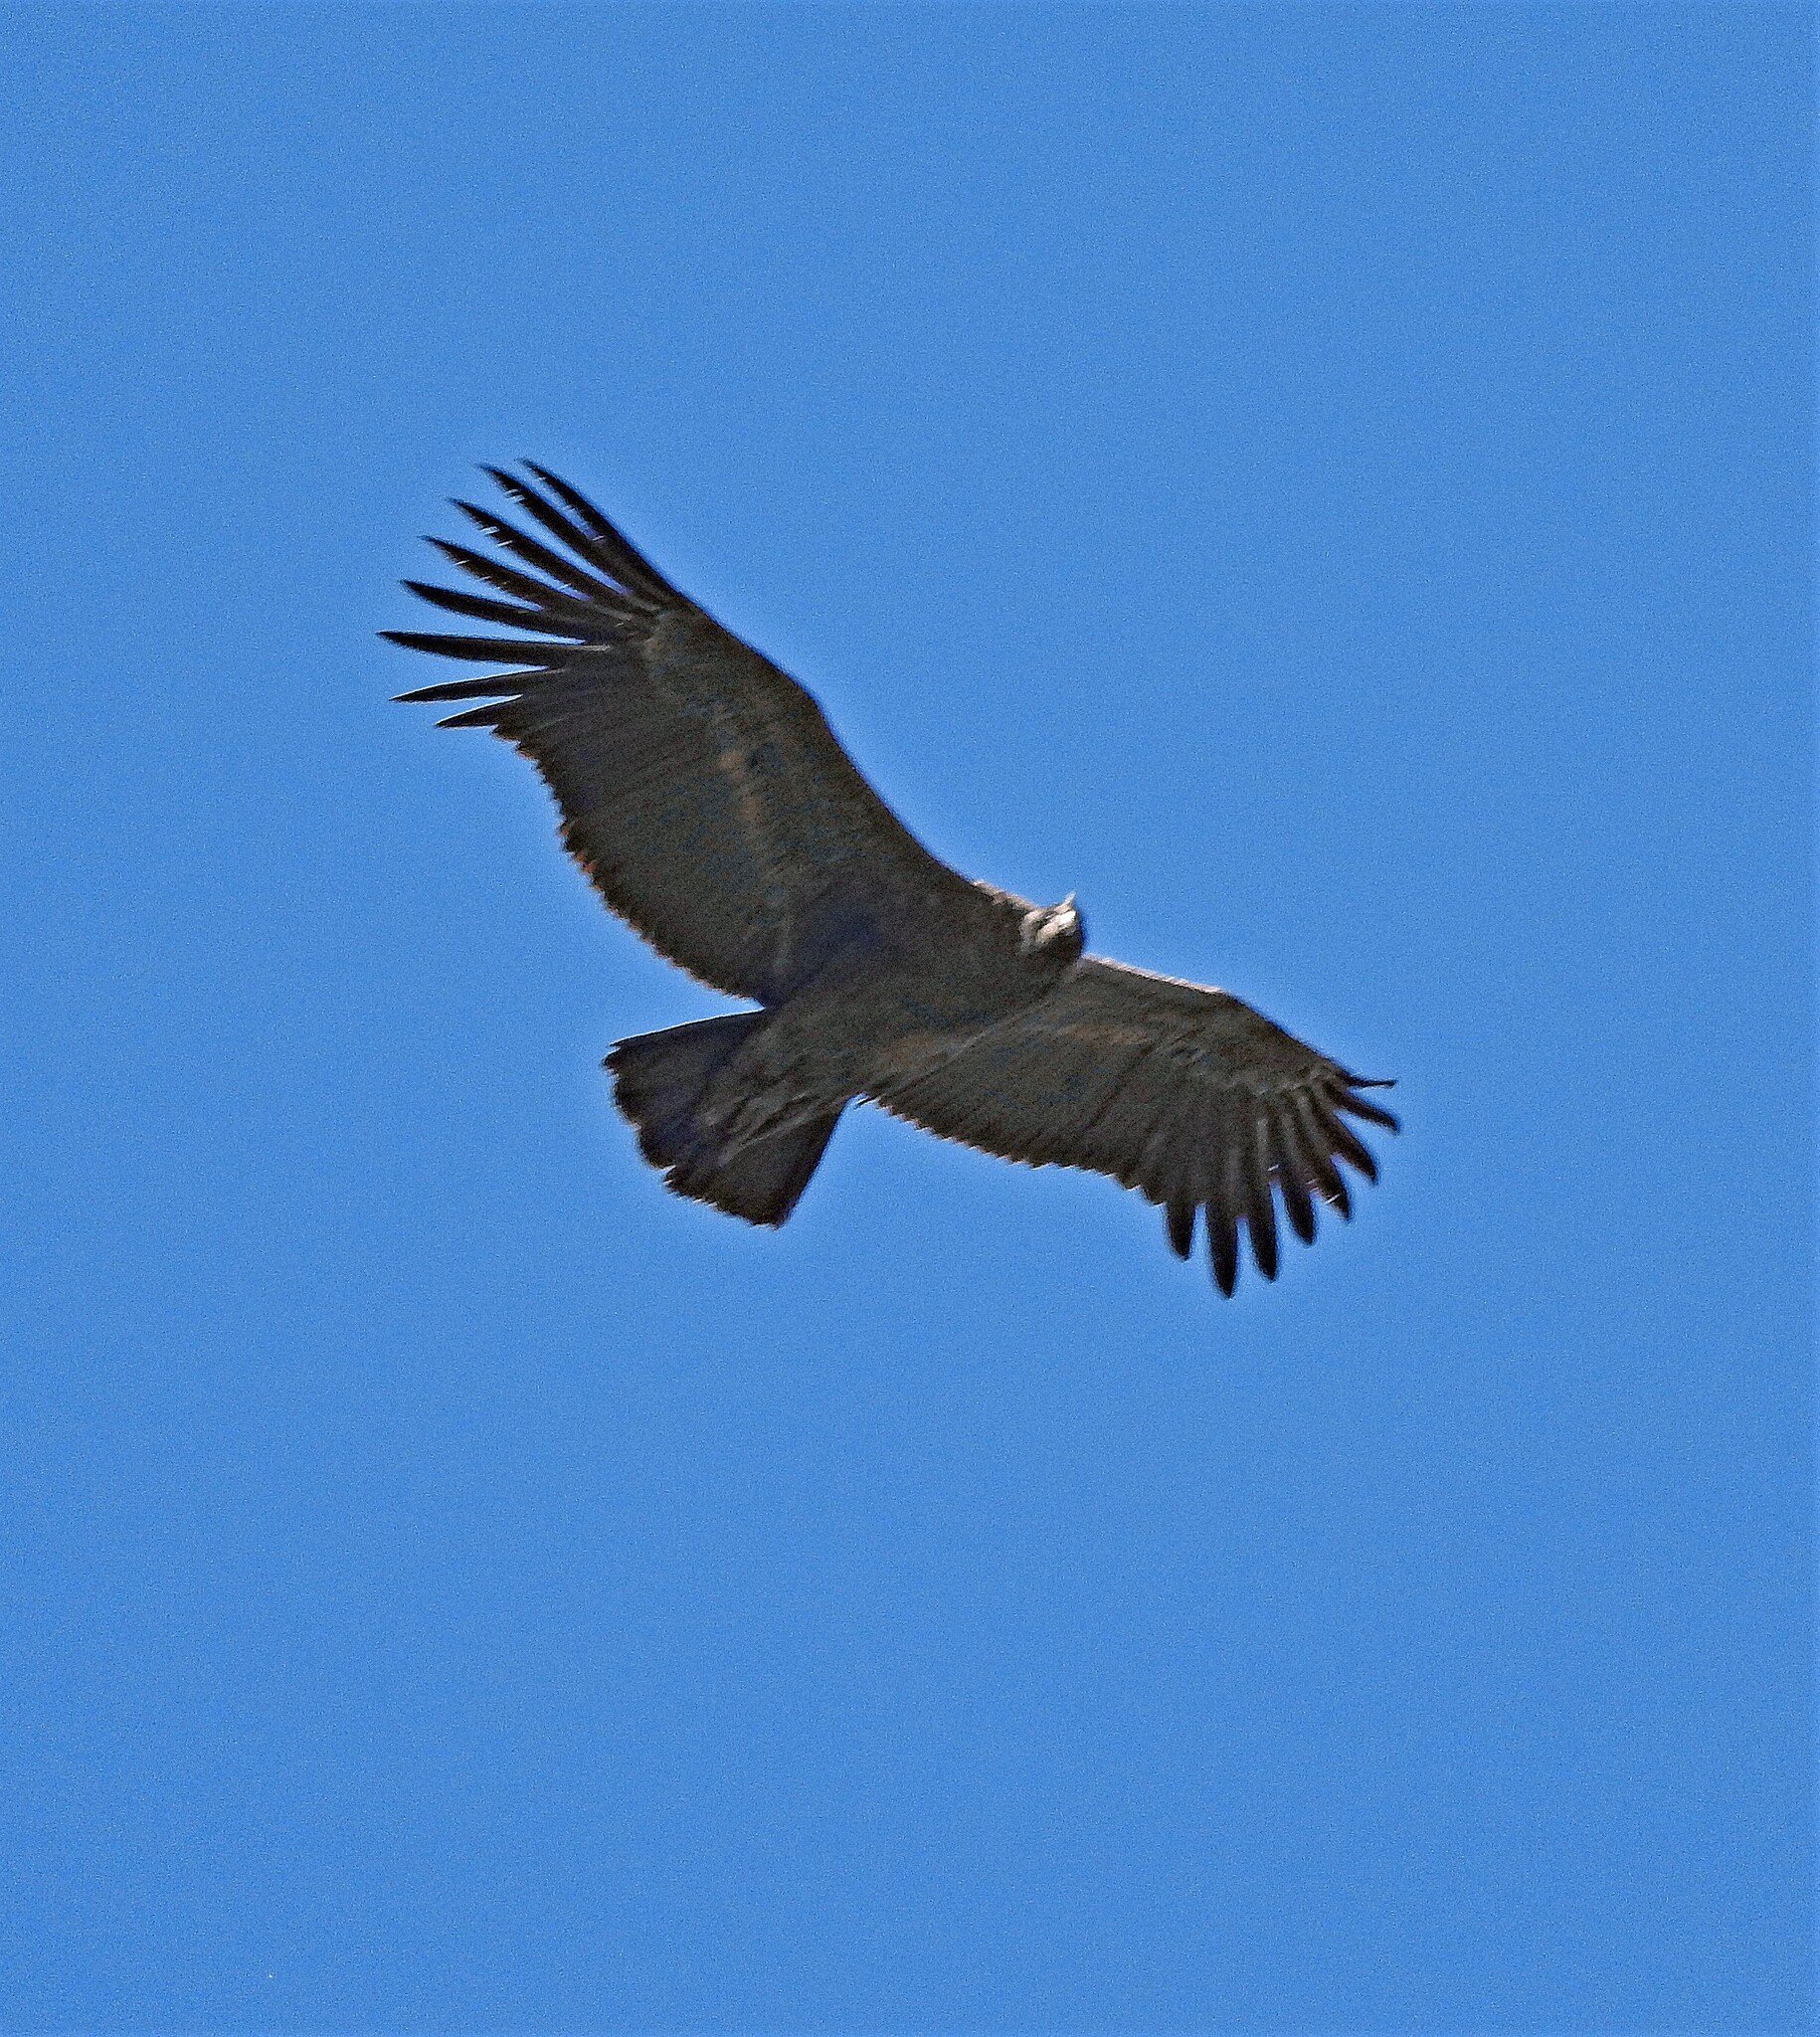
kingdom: Animalia
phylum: Chordata
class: Aves
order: Accipitriformes
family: Cathartidae
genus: Vultur
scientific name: Vultur gryphus
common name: Andean condor
